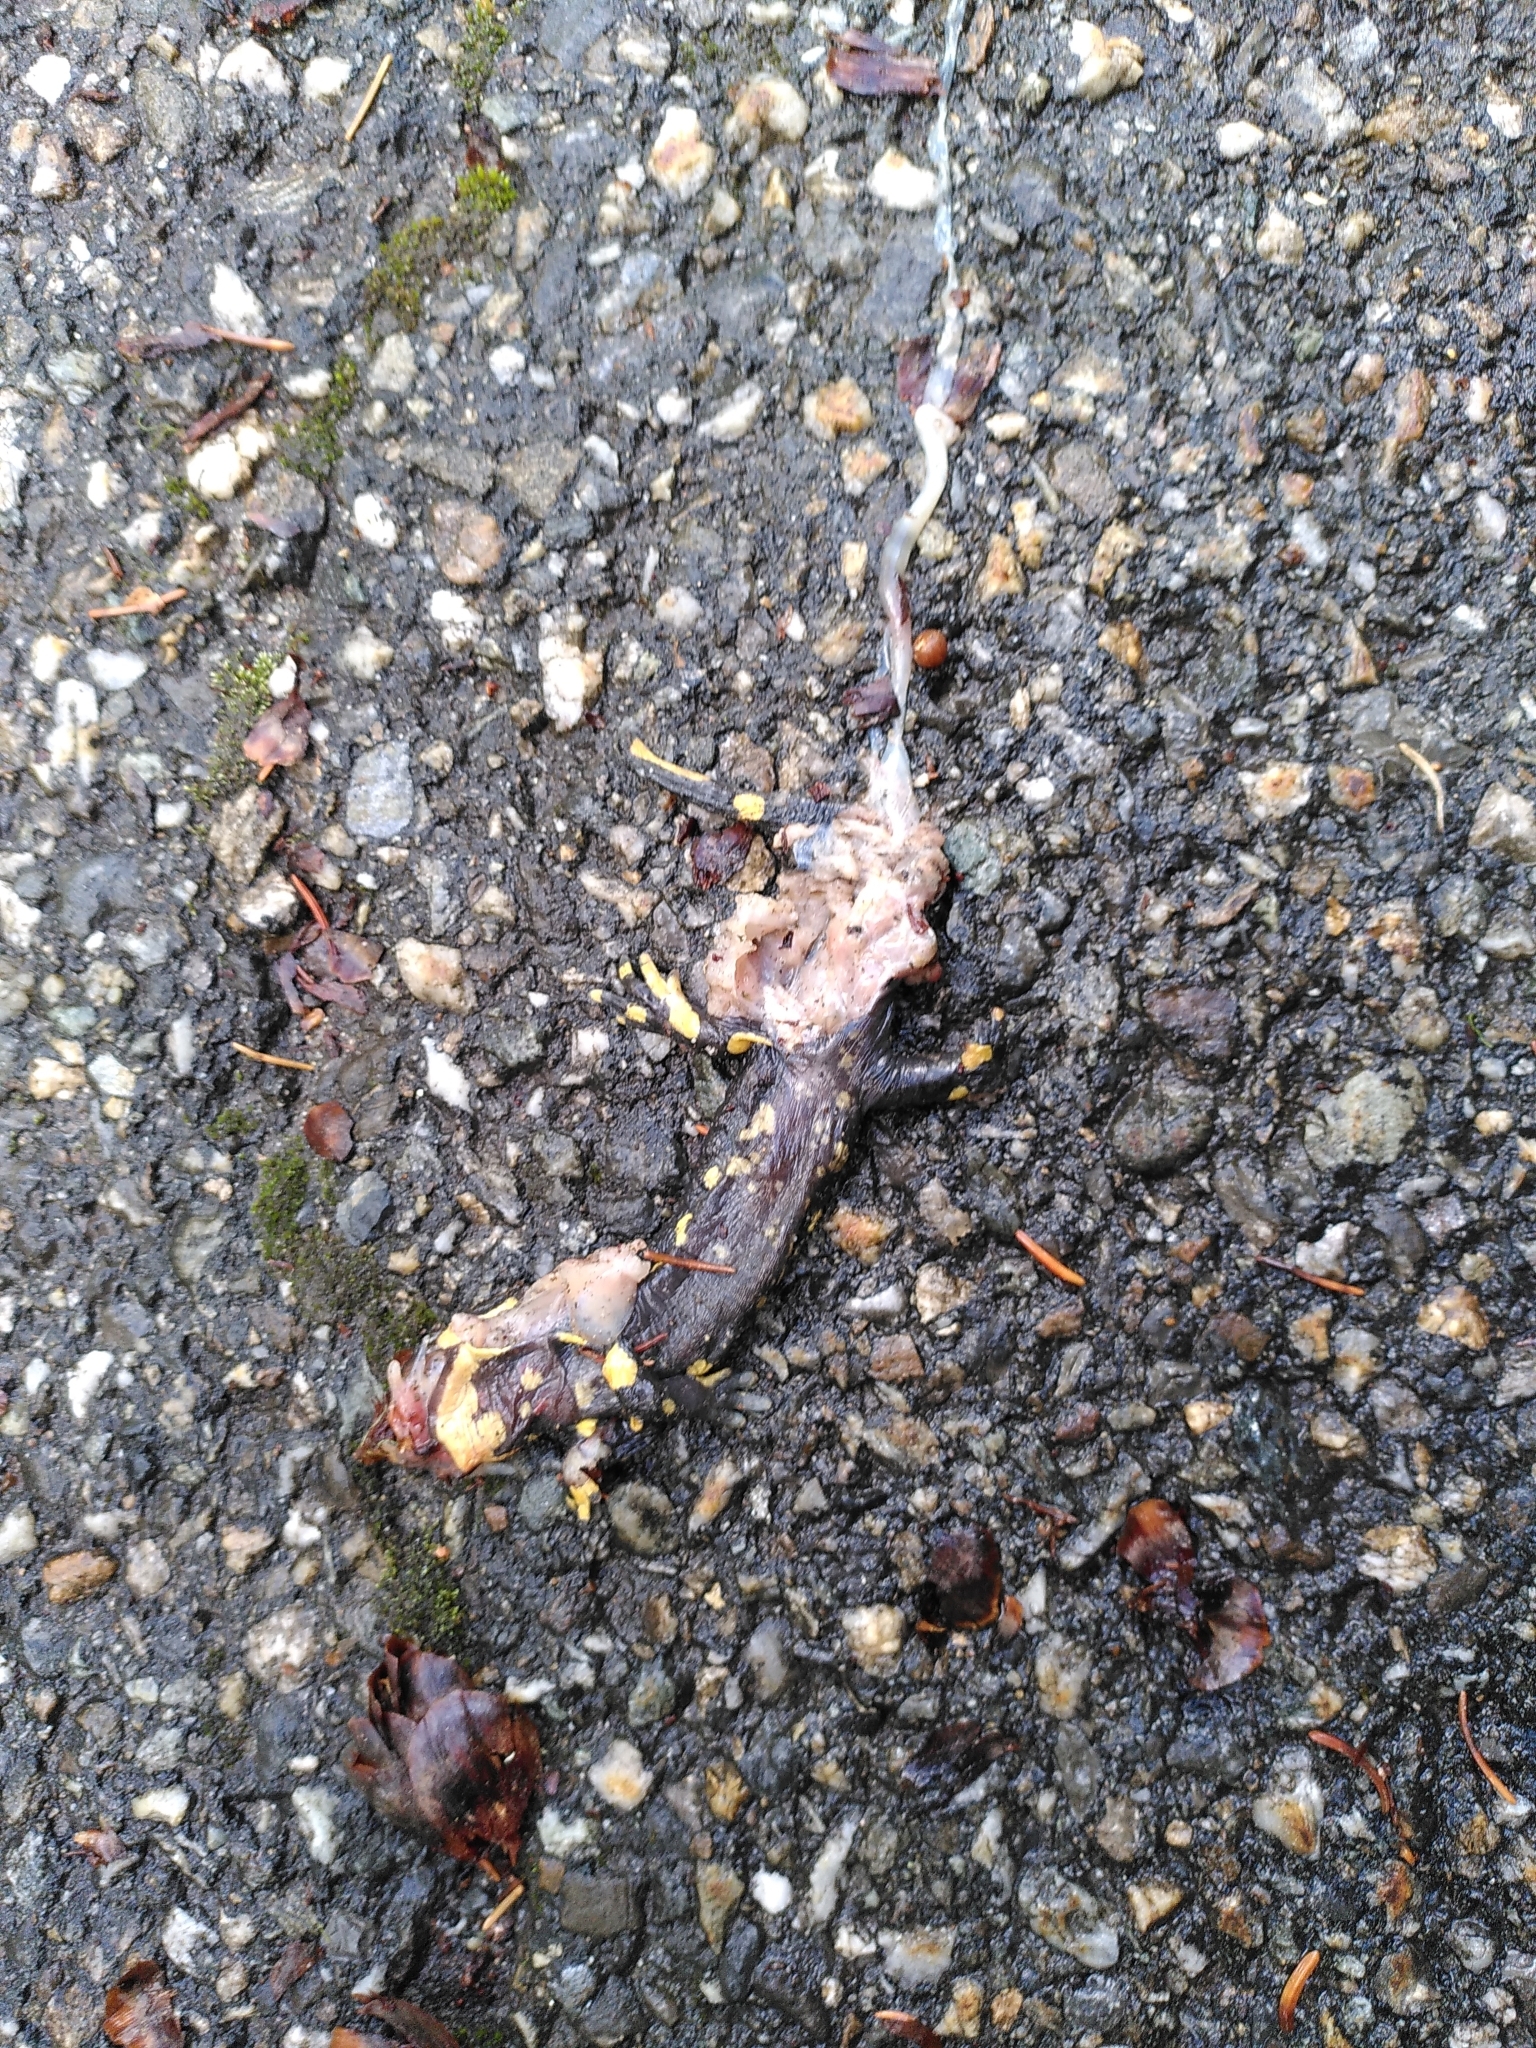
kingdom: Animalia
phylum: Chordata
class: Amphibia
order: Caudata
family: Salamandridae
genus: Salamandra
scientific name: Salamandra salamandra
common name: Fire salamander
